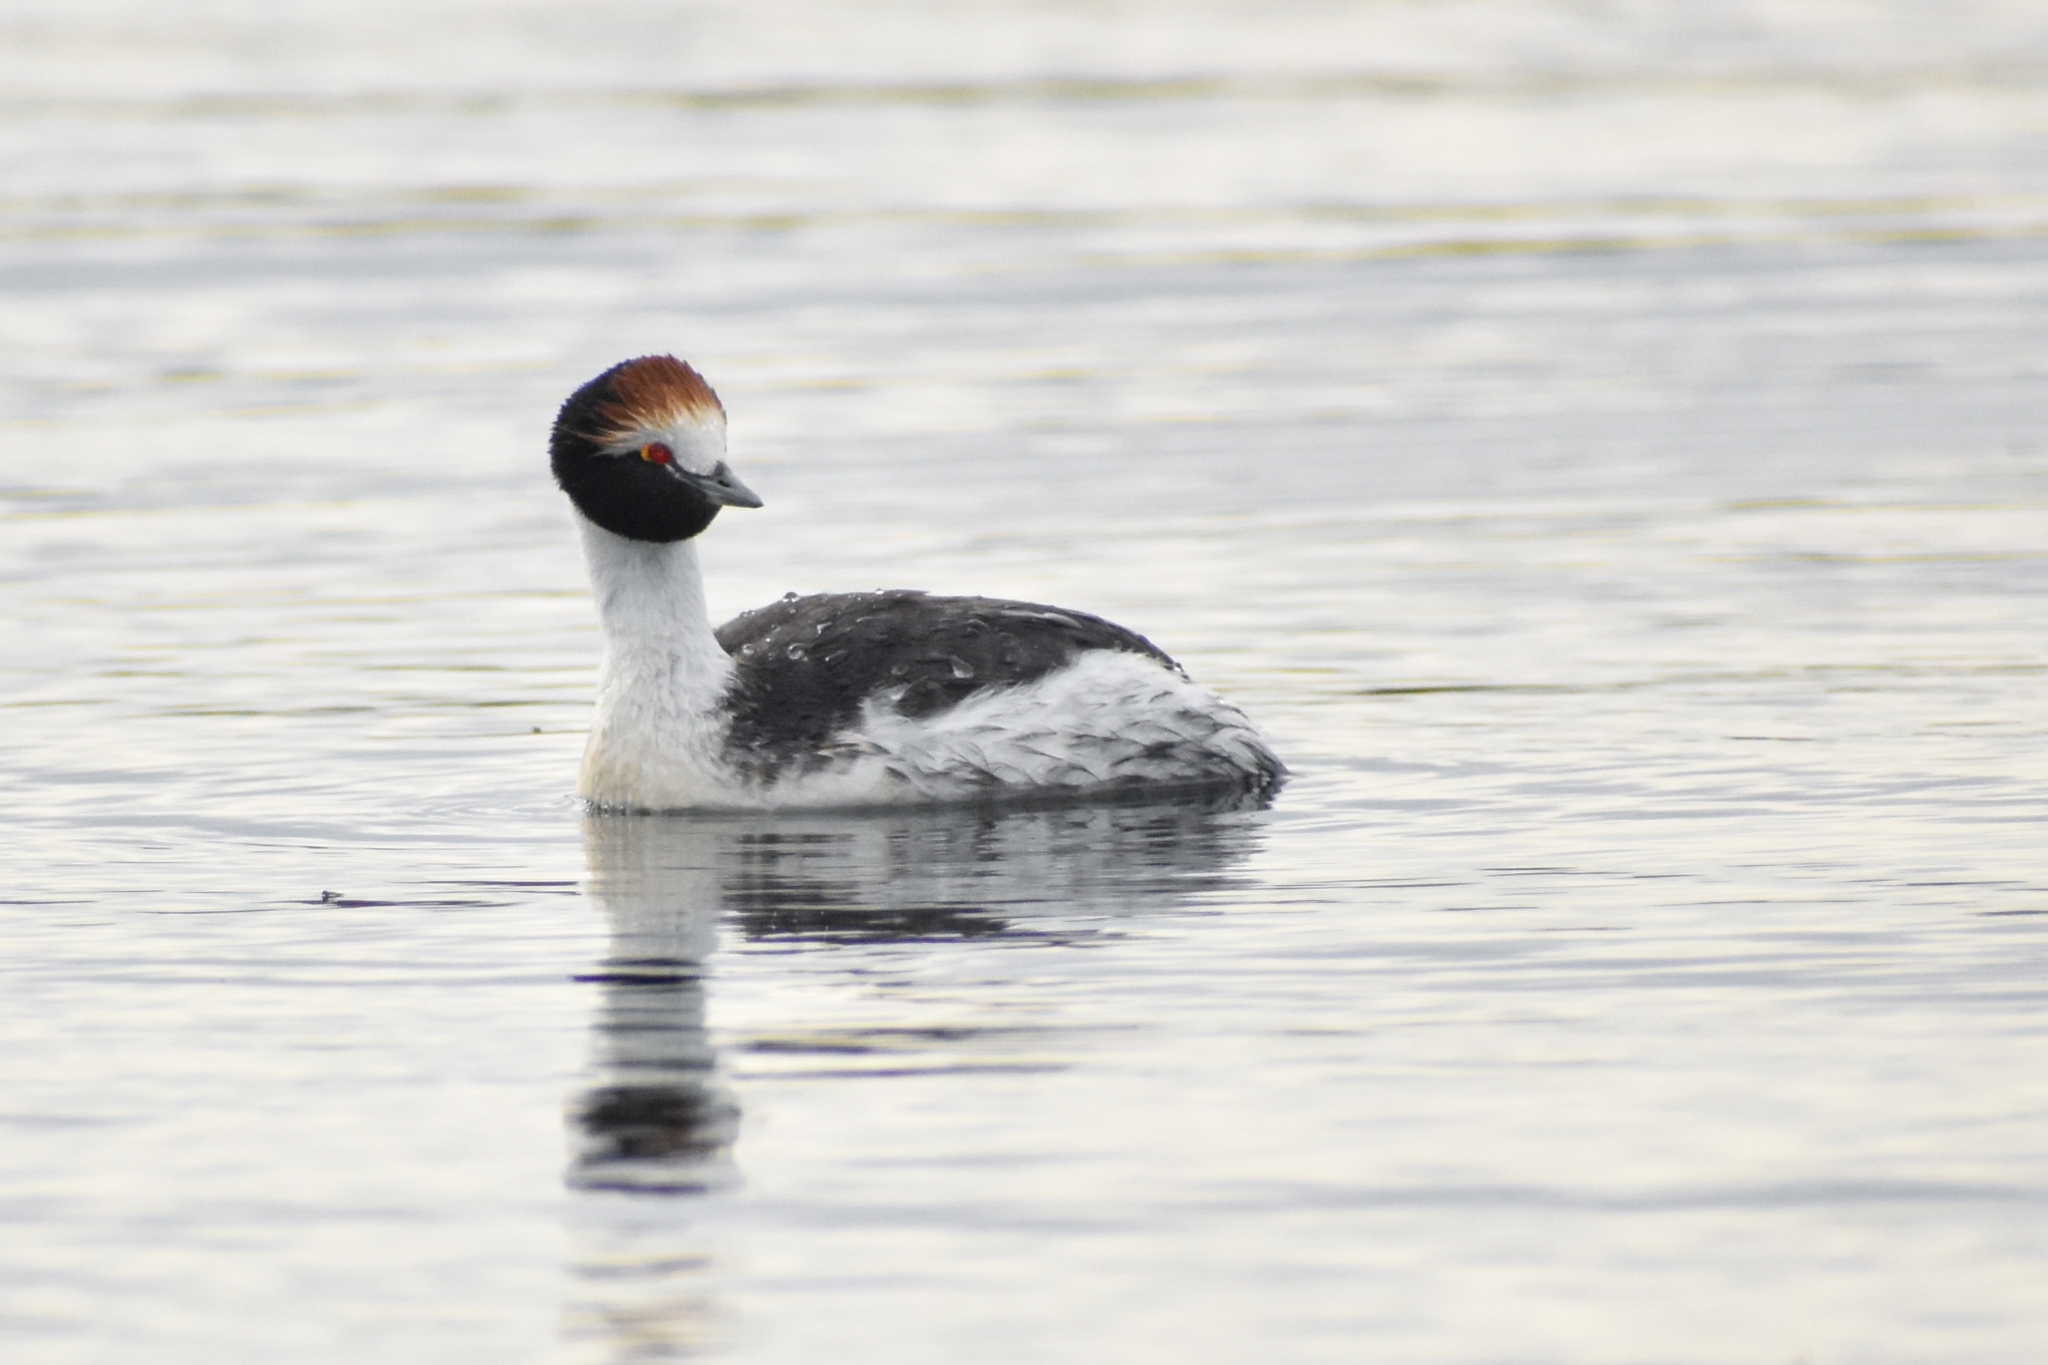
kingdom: Animalia
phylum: Chordata
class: Aves
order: Podicipediformes
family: Podicipedidae
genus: Podiceps
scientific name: Podiceps gallardoi
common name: Hooded grebe
